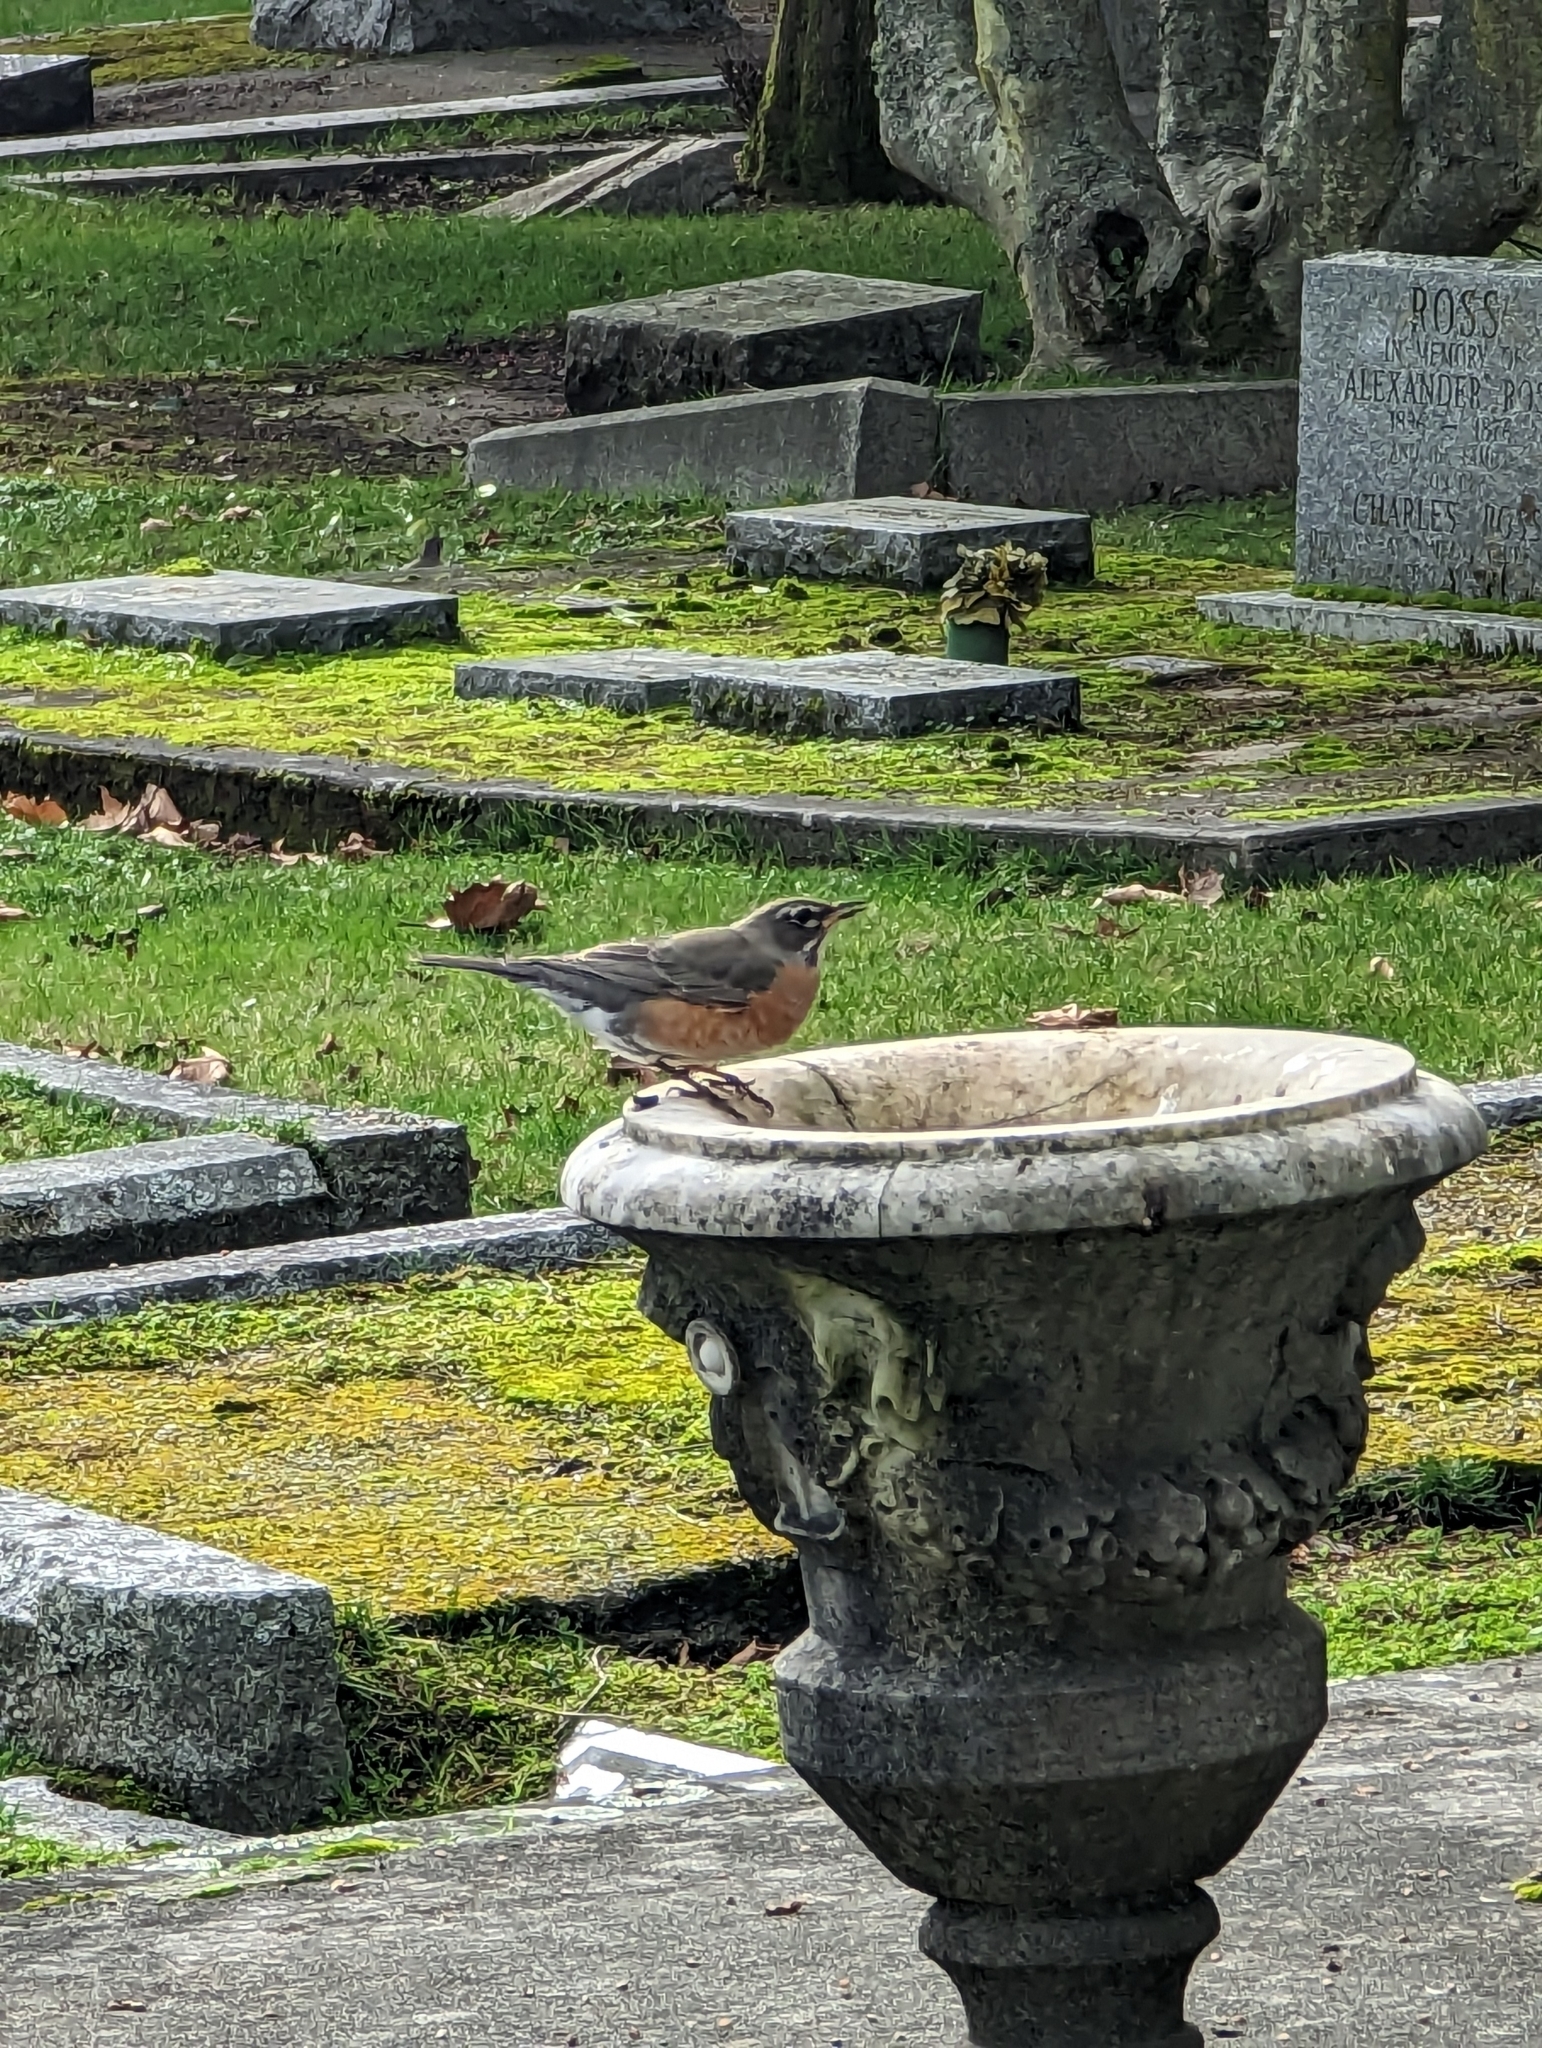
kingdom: Animalia
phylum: Chordata
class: Aves
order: Passeriformes
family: Turdidae
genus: Turdus
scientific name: Turdus migratorius
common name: American robin
